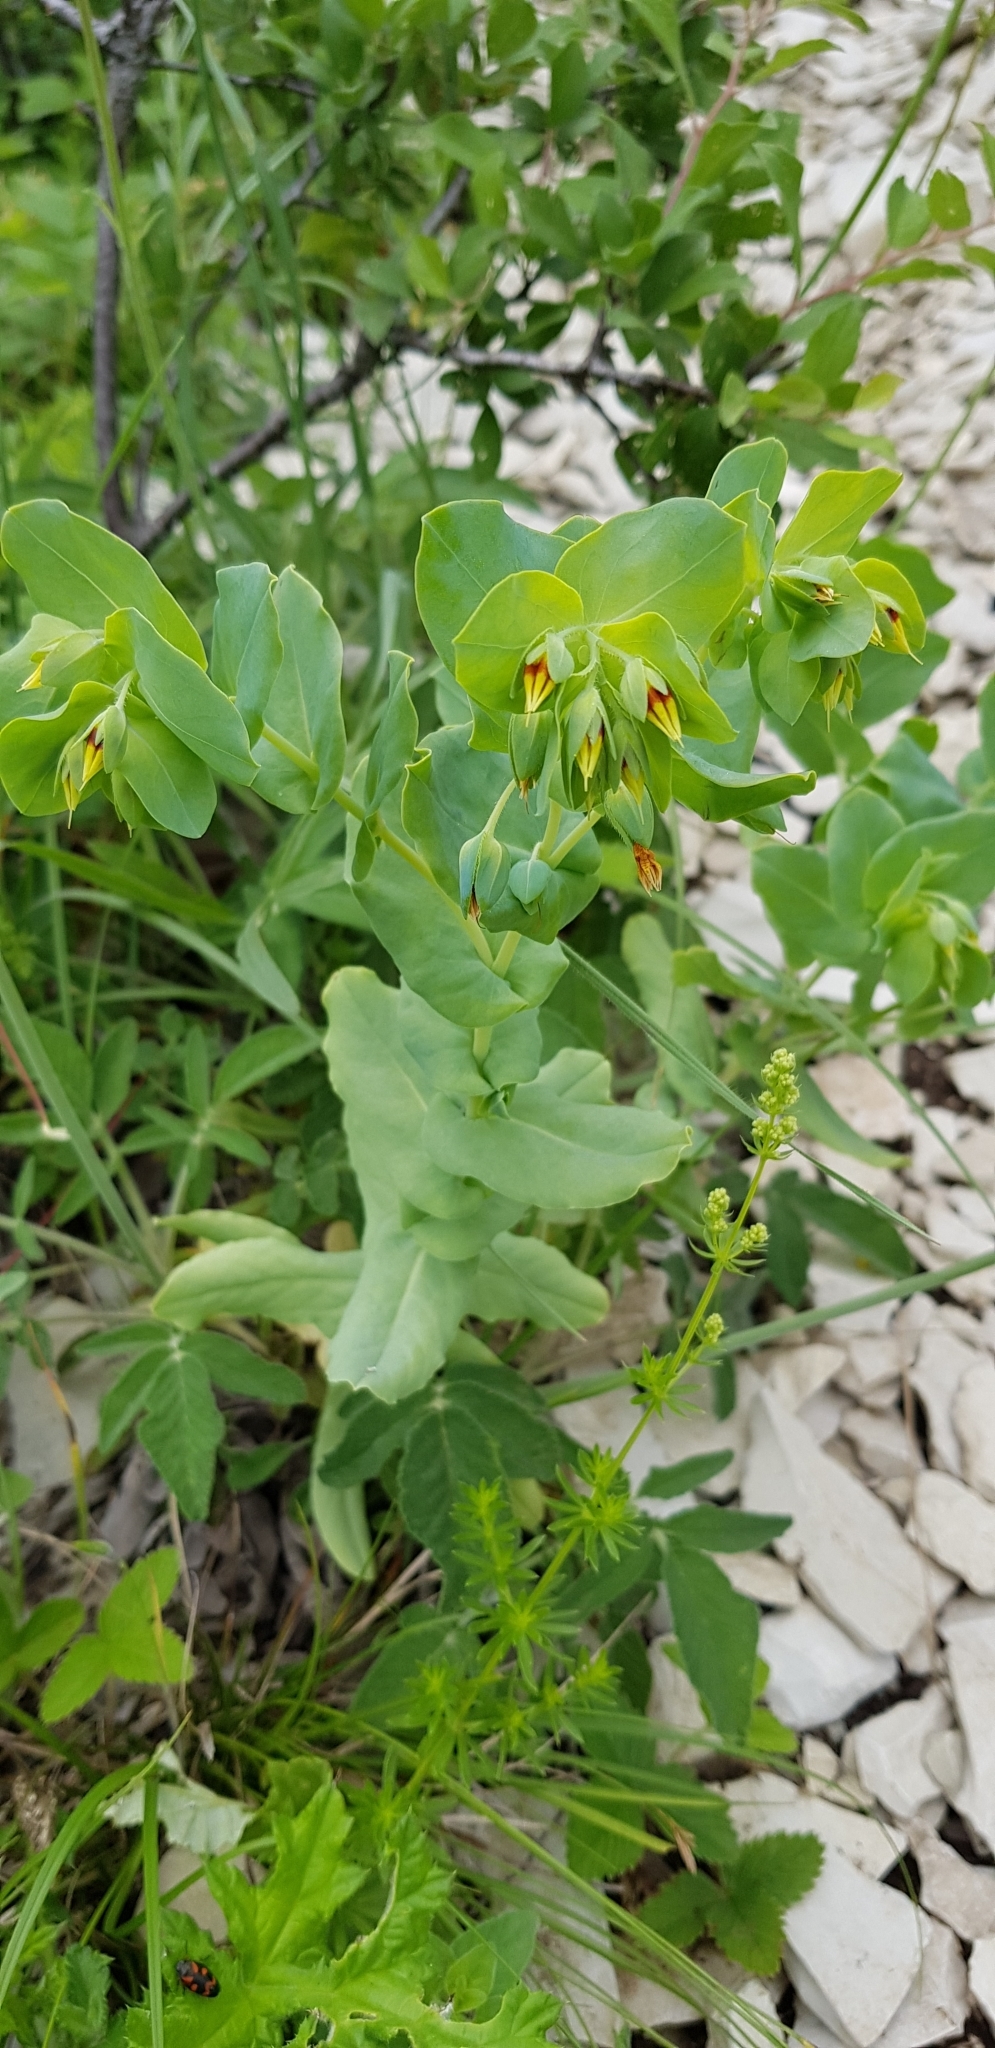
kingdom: Plantae
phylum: Tracheophyta
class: Magnoliopsida
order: Boraginales
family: Boraginaceae
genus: Cerinthe
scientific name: Cerinthe minor
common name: Lesser honeywort
